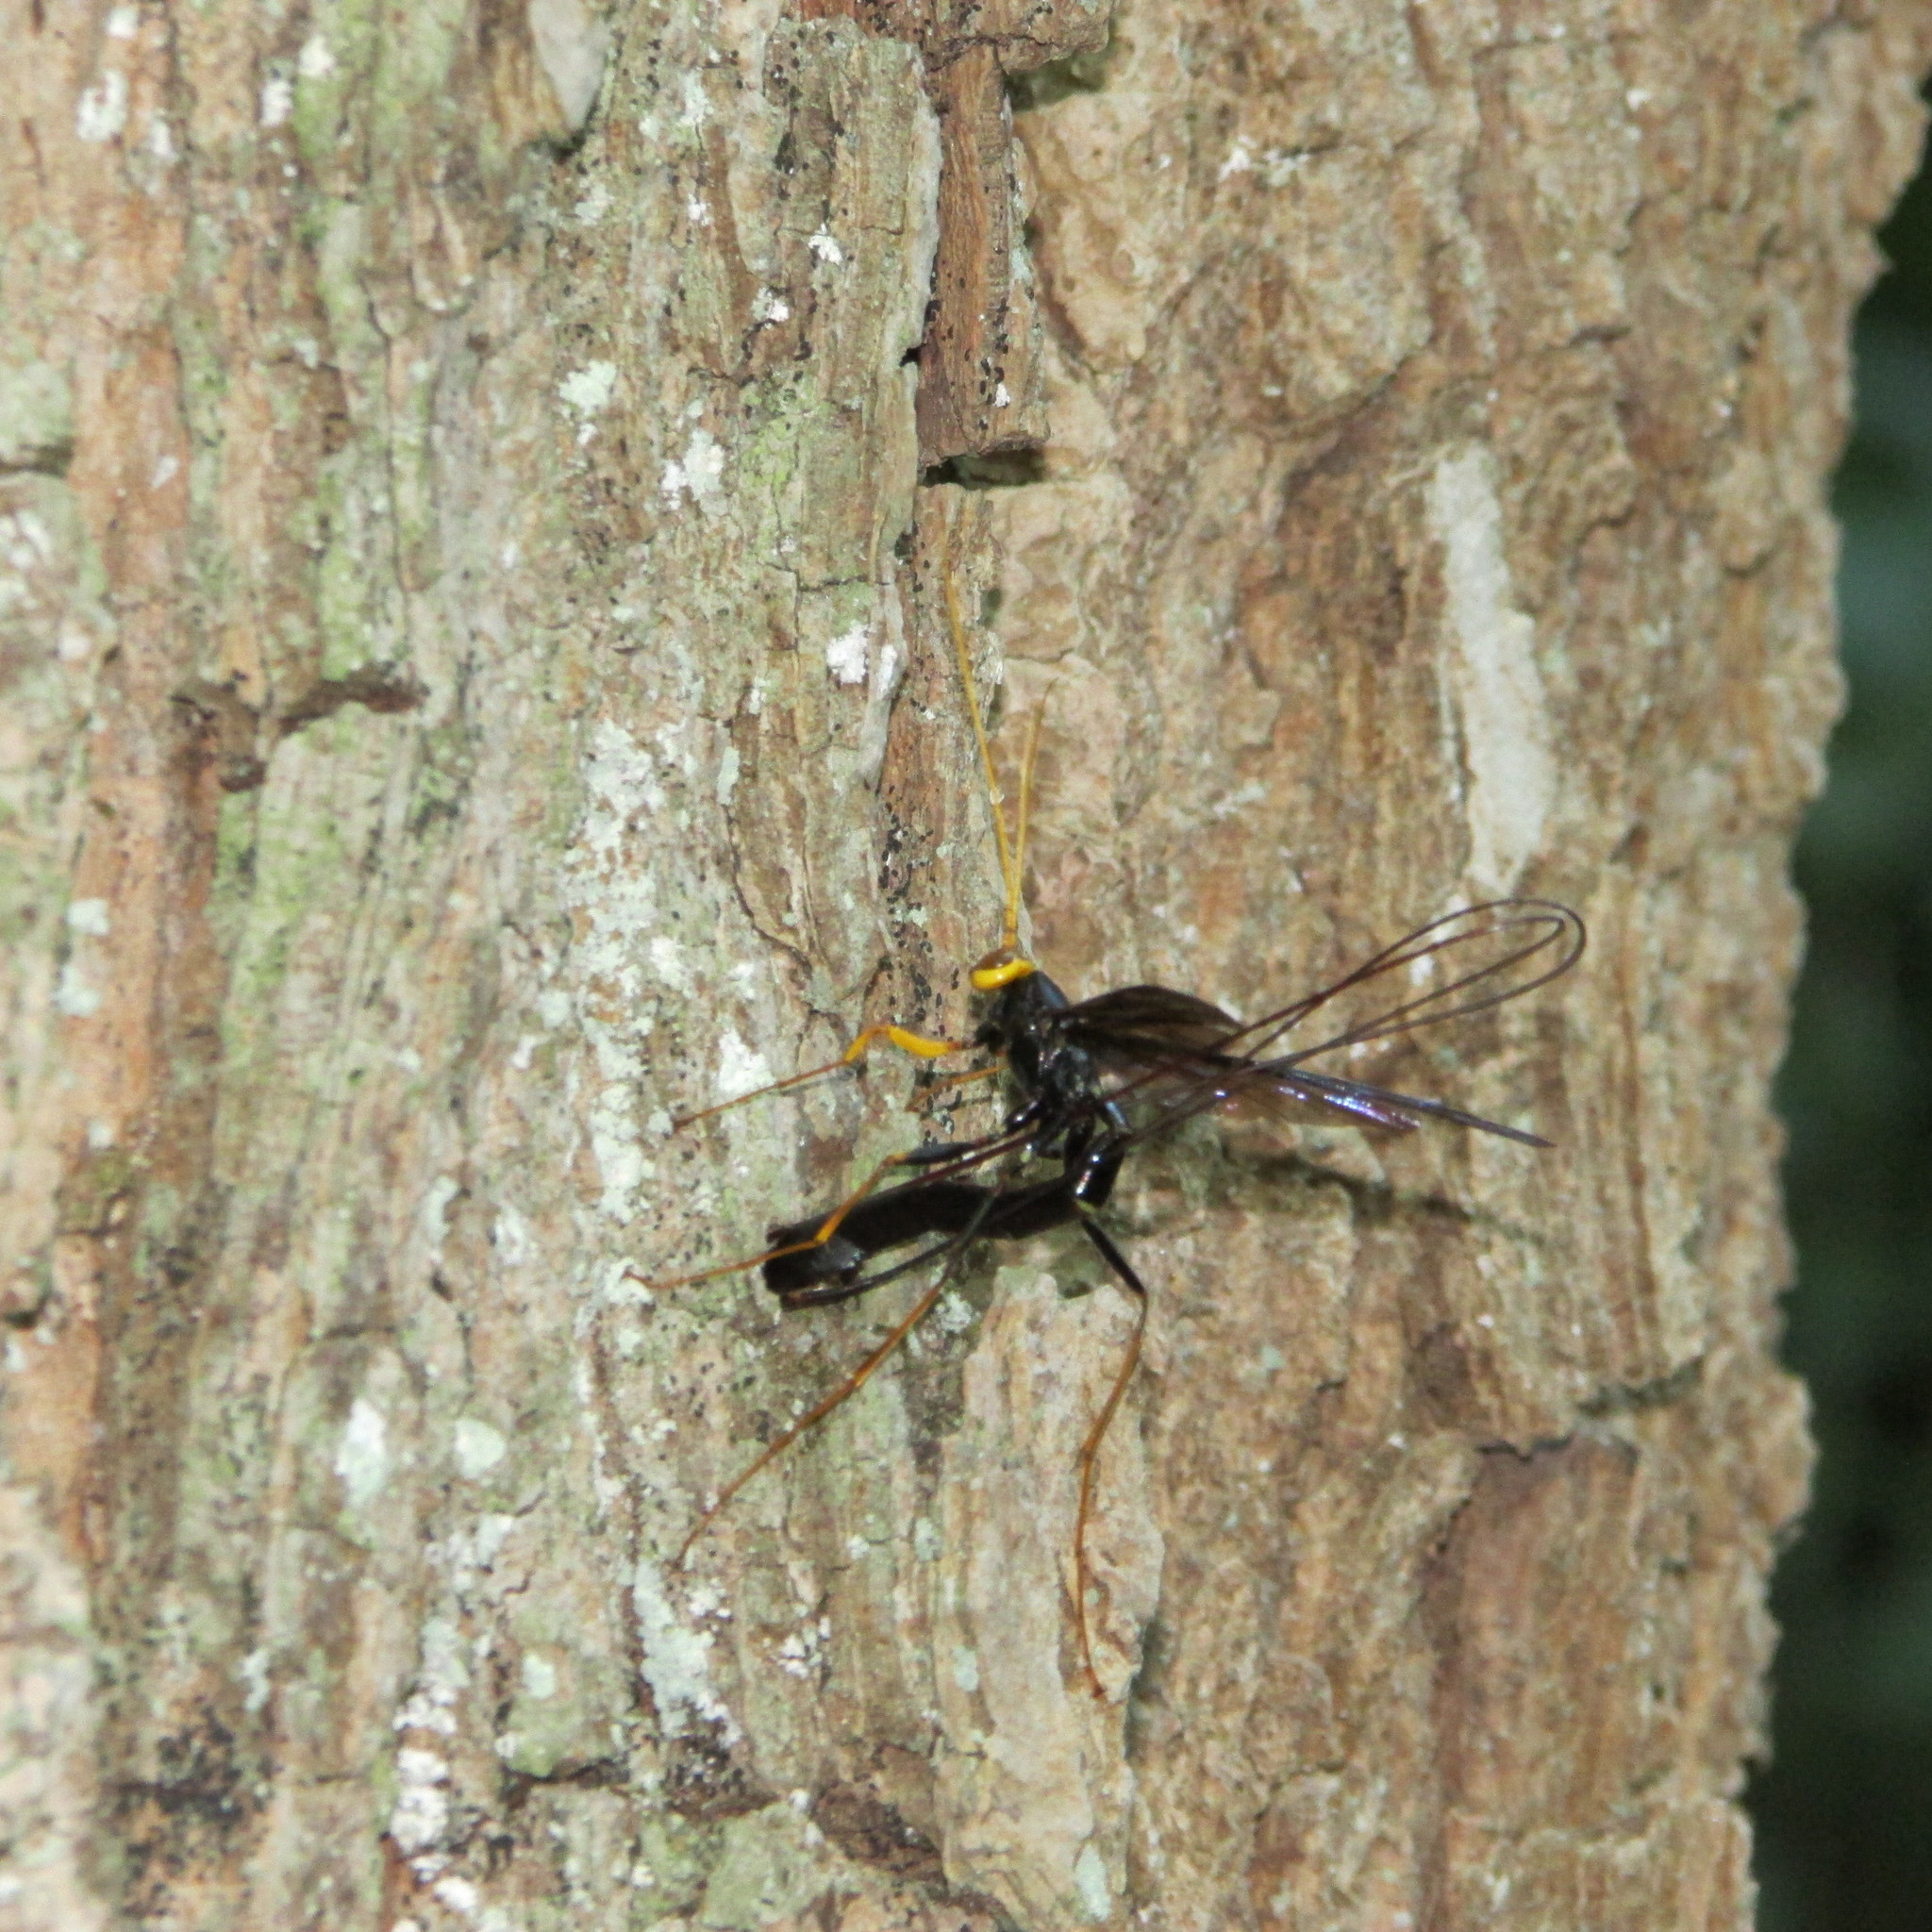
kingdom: Animalia
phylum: Arthropoda
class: Insecta
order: Hymenoptera
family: Ichneumonidae
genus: Megarhyssa
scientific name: Megarhyssa atrata
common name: Black giant ichneumonid wasp
